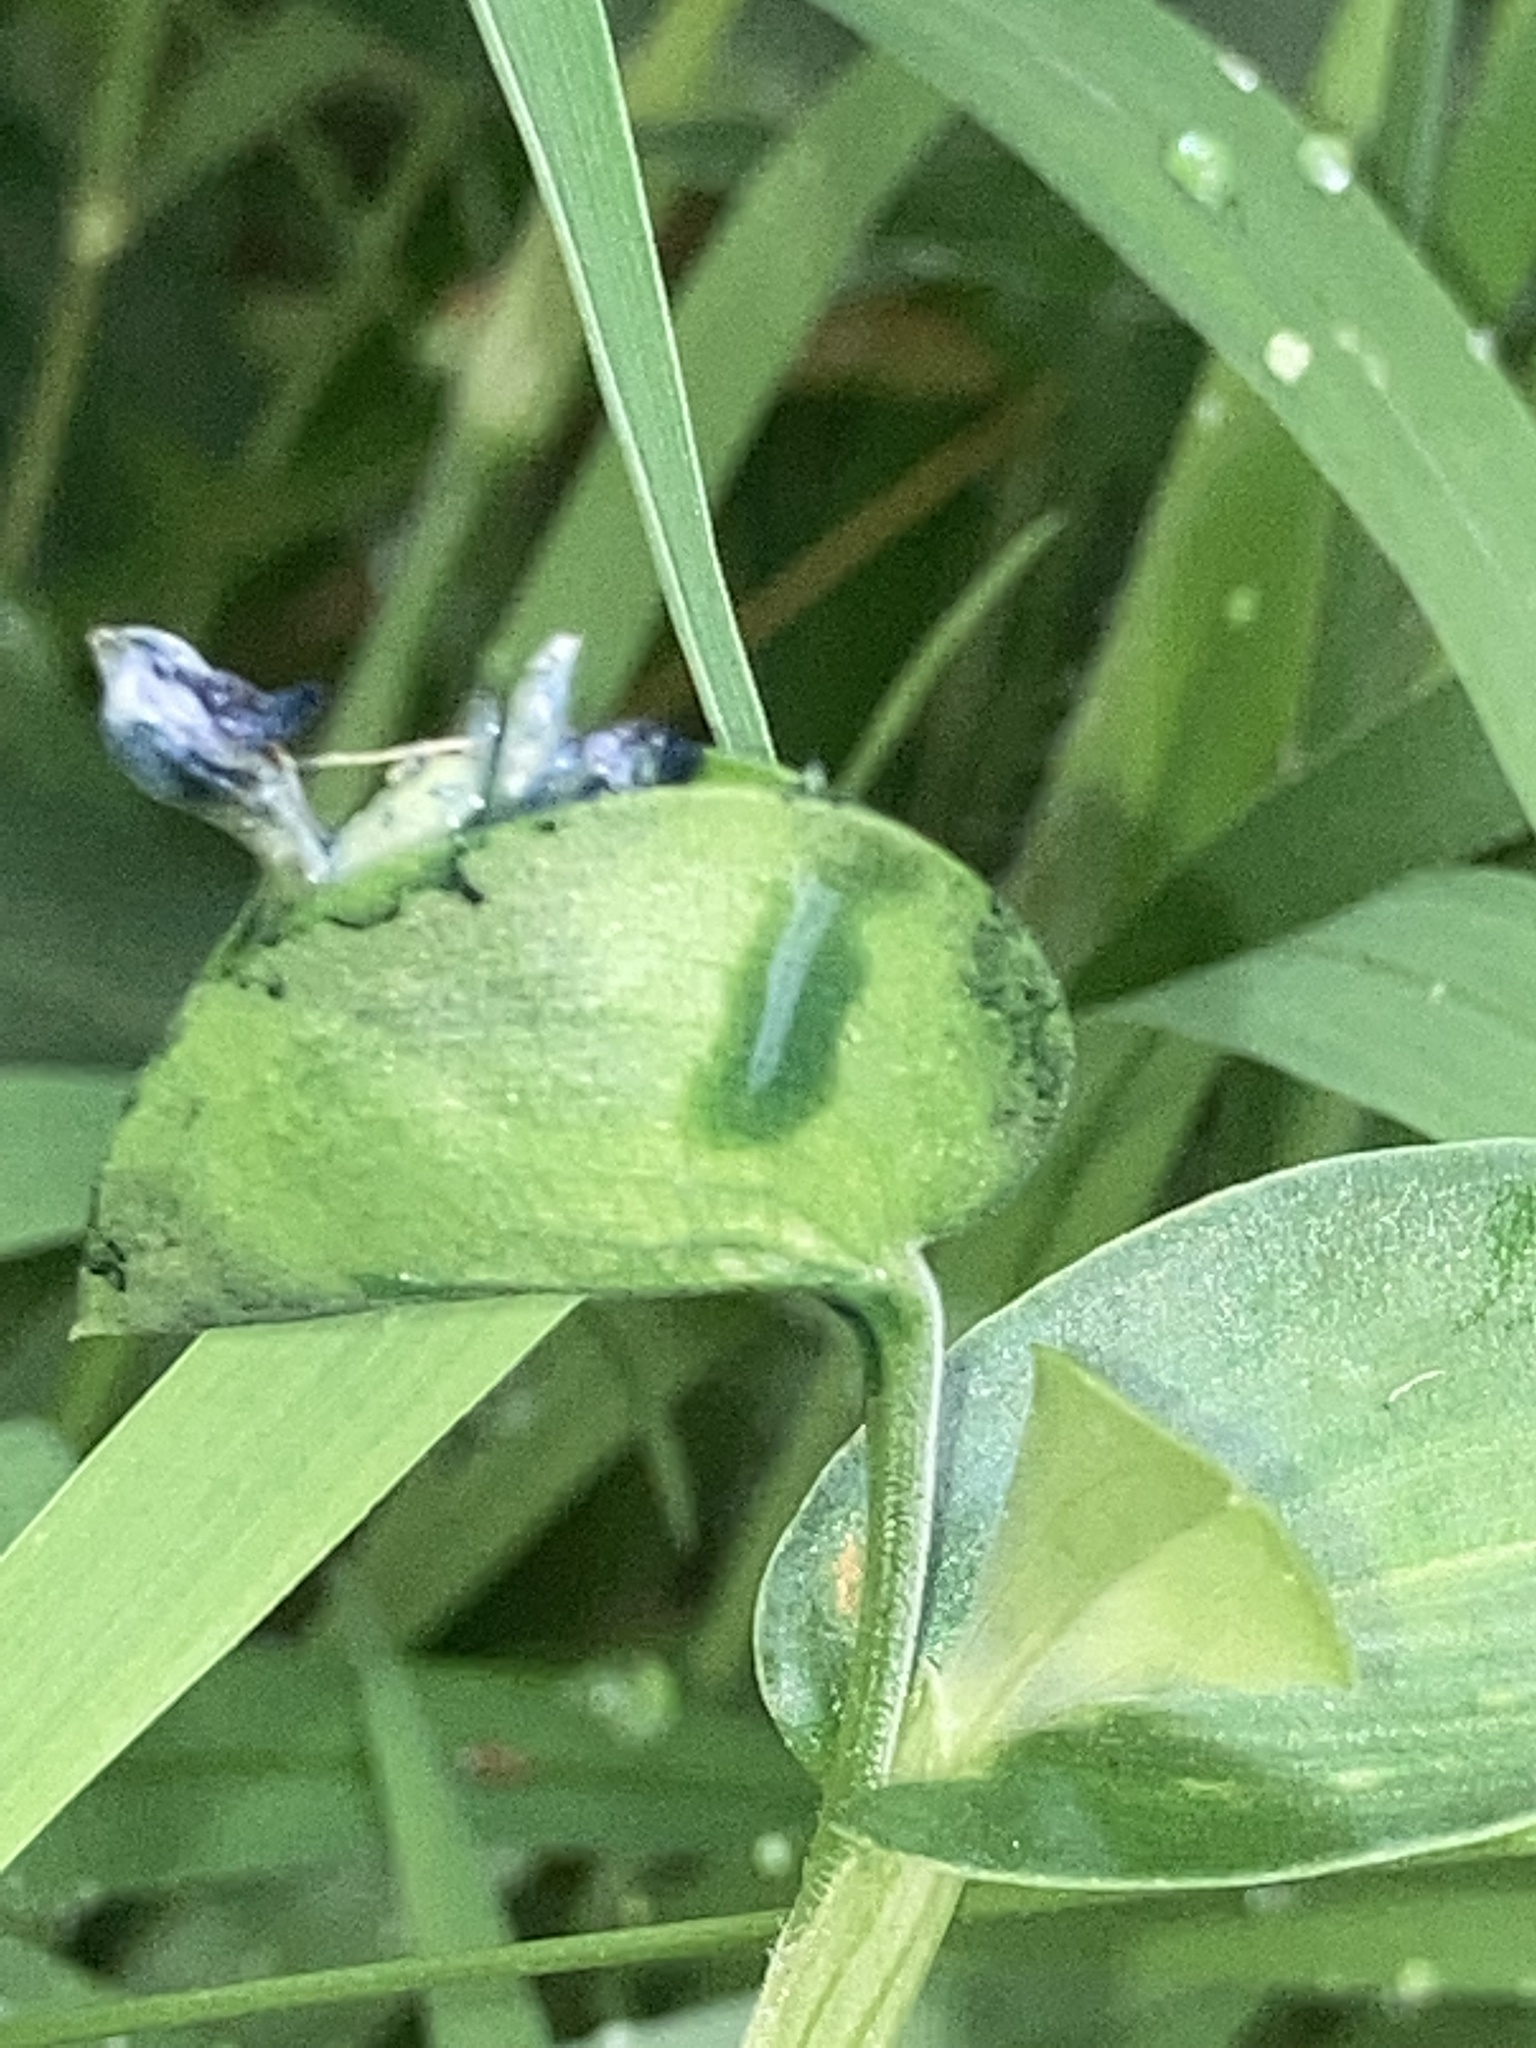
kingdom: Plantae
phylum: Tracheophyta
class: Liliopsida
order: Commelinales
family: Commelinaceae
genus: Commelina
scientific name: Commelina communis
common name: Asiatic dayflower
